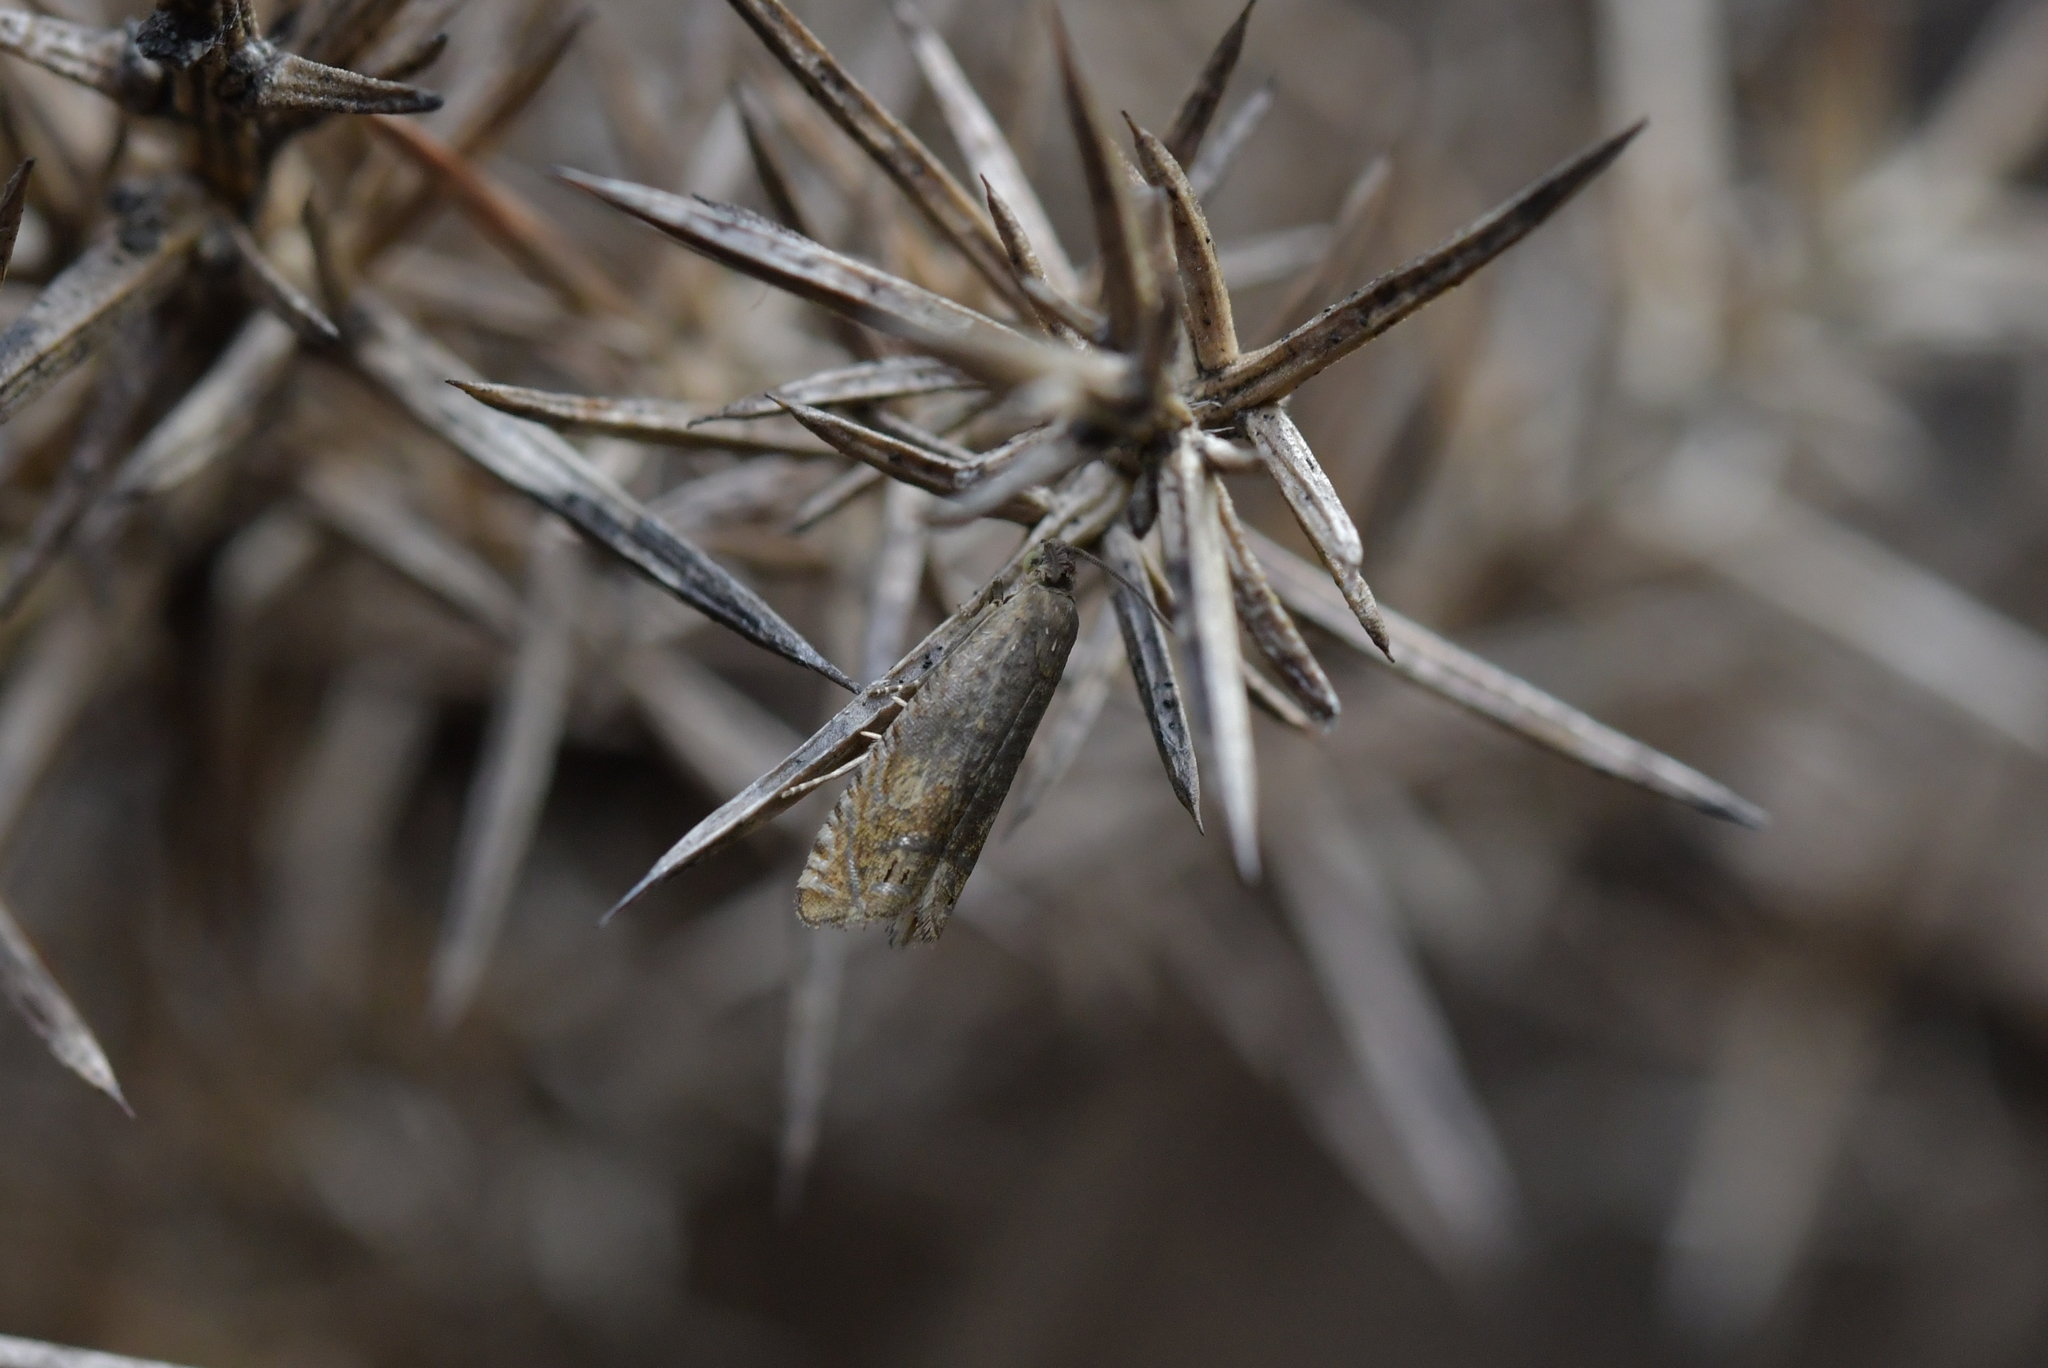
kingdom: Animalia
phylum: Arthropoda
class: Insecta
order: Lepidoptera
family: Tortricidae
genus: Cydia
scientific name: Cydia succedana
